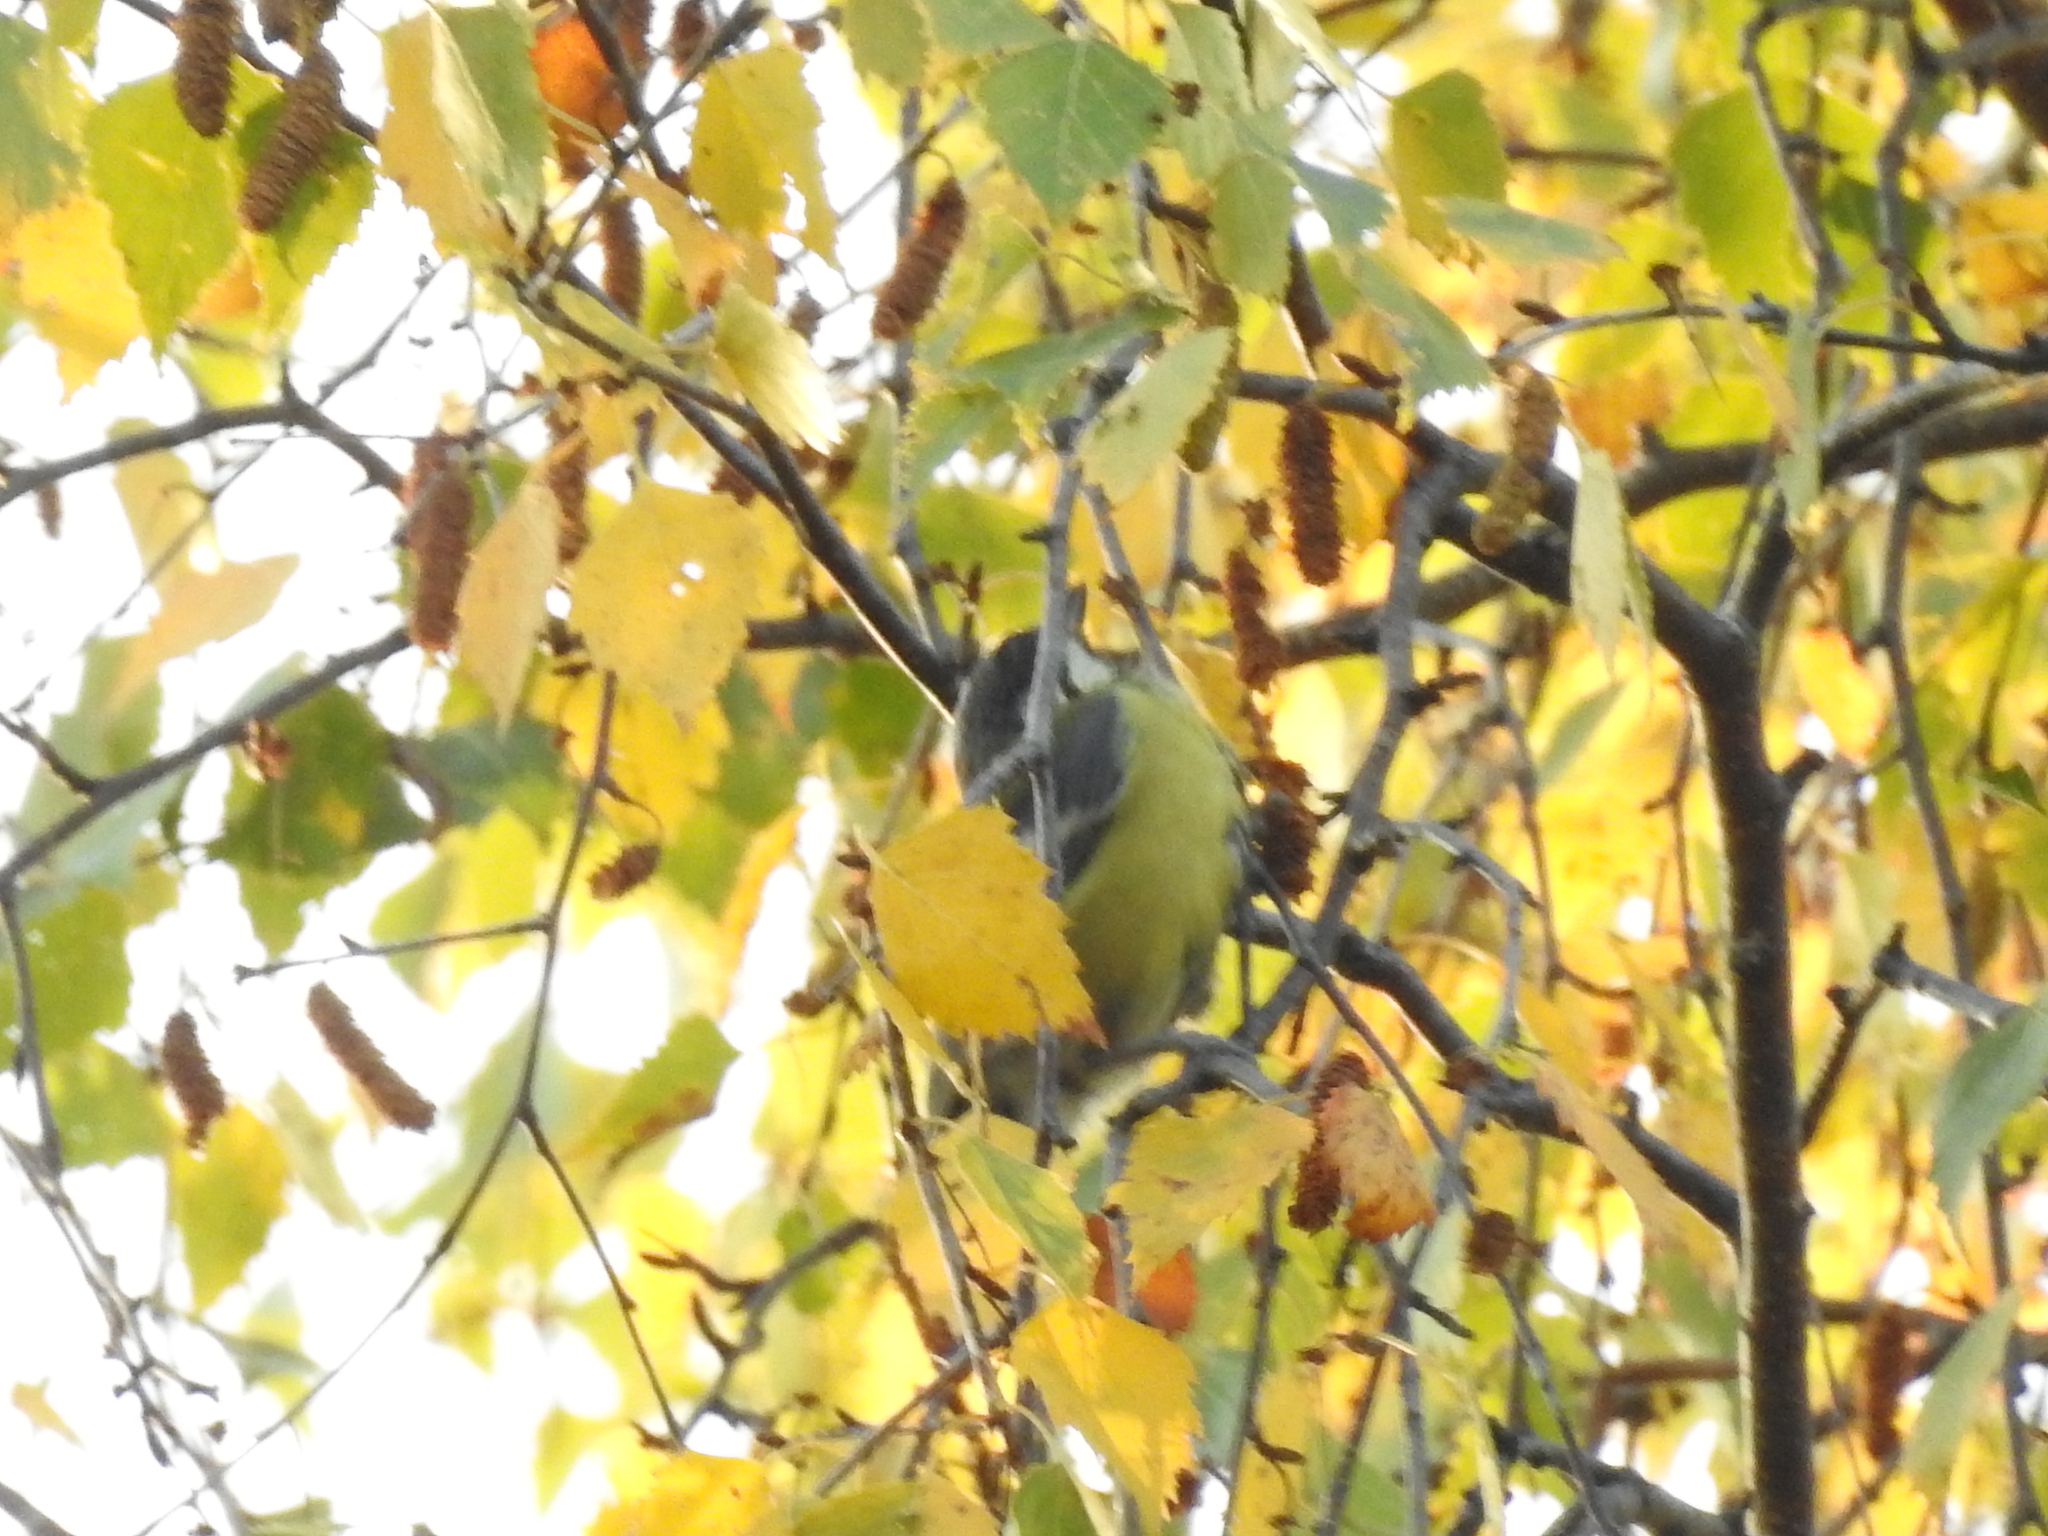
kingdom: Animalia
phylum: Chordata
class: Aves
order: Passeriformes
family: Paridae
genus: Parus
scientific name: Parus major
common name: Great tit
